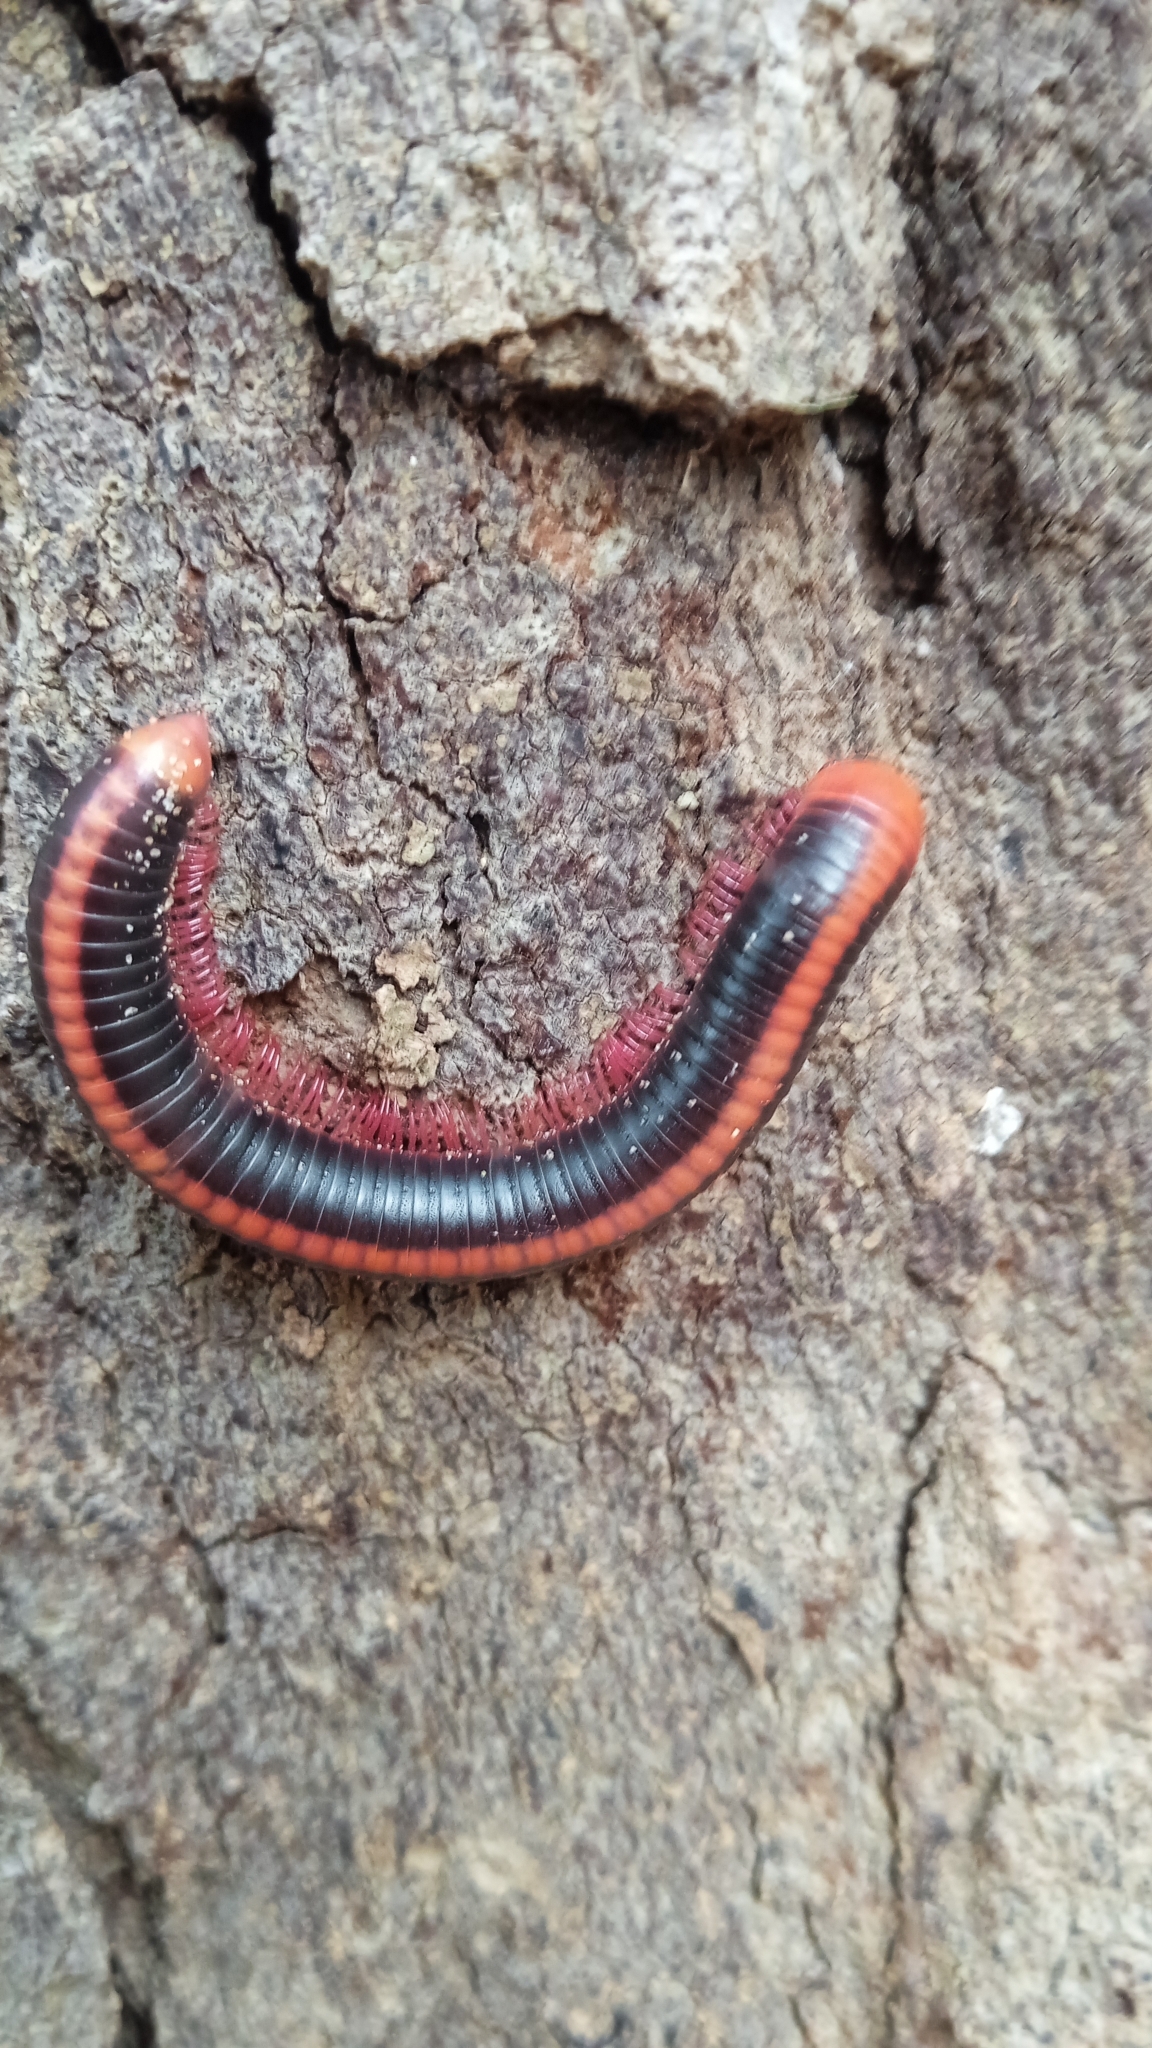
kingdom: Animalia
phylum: Arthropoda
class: Diplopoda
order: Spirobolida
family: Pachybolidae
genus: Xenobolus
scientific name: Xenobolus carnifex
